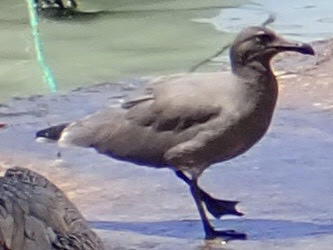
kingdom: Animalia
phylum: Chordata
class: Aves
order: Charadriiformes
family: Laridae
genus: Leucophaeus
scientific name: Leucophaeus fuliginosus
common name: Lava gull
